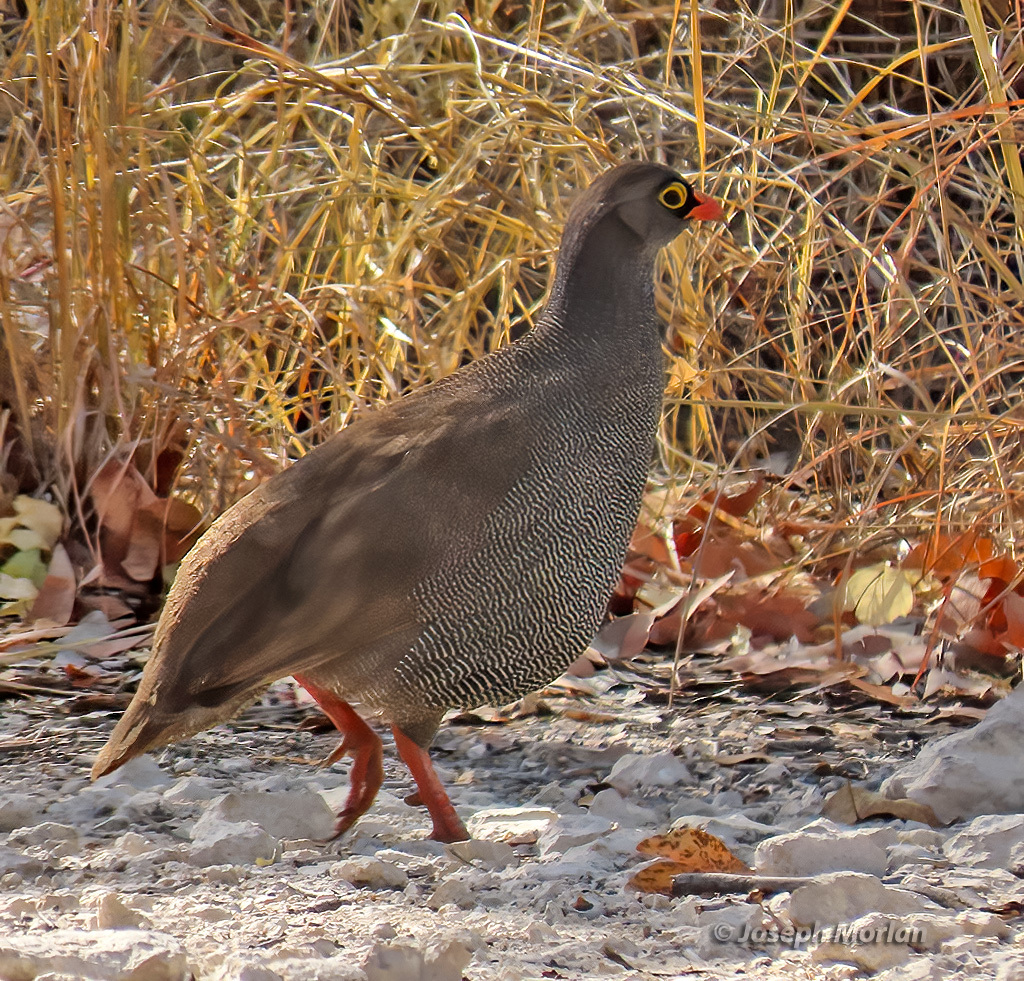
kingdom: Animalia
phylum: Chordata
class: Aves
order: Galliformes
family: Phasianidae
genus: Pternistis
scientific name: Pternistis adspersus
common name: Red-billed spurfowl
